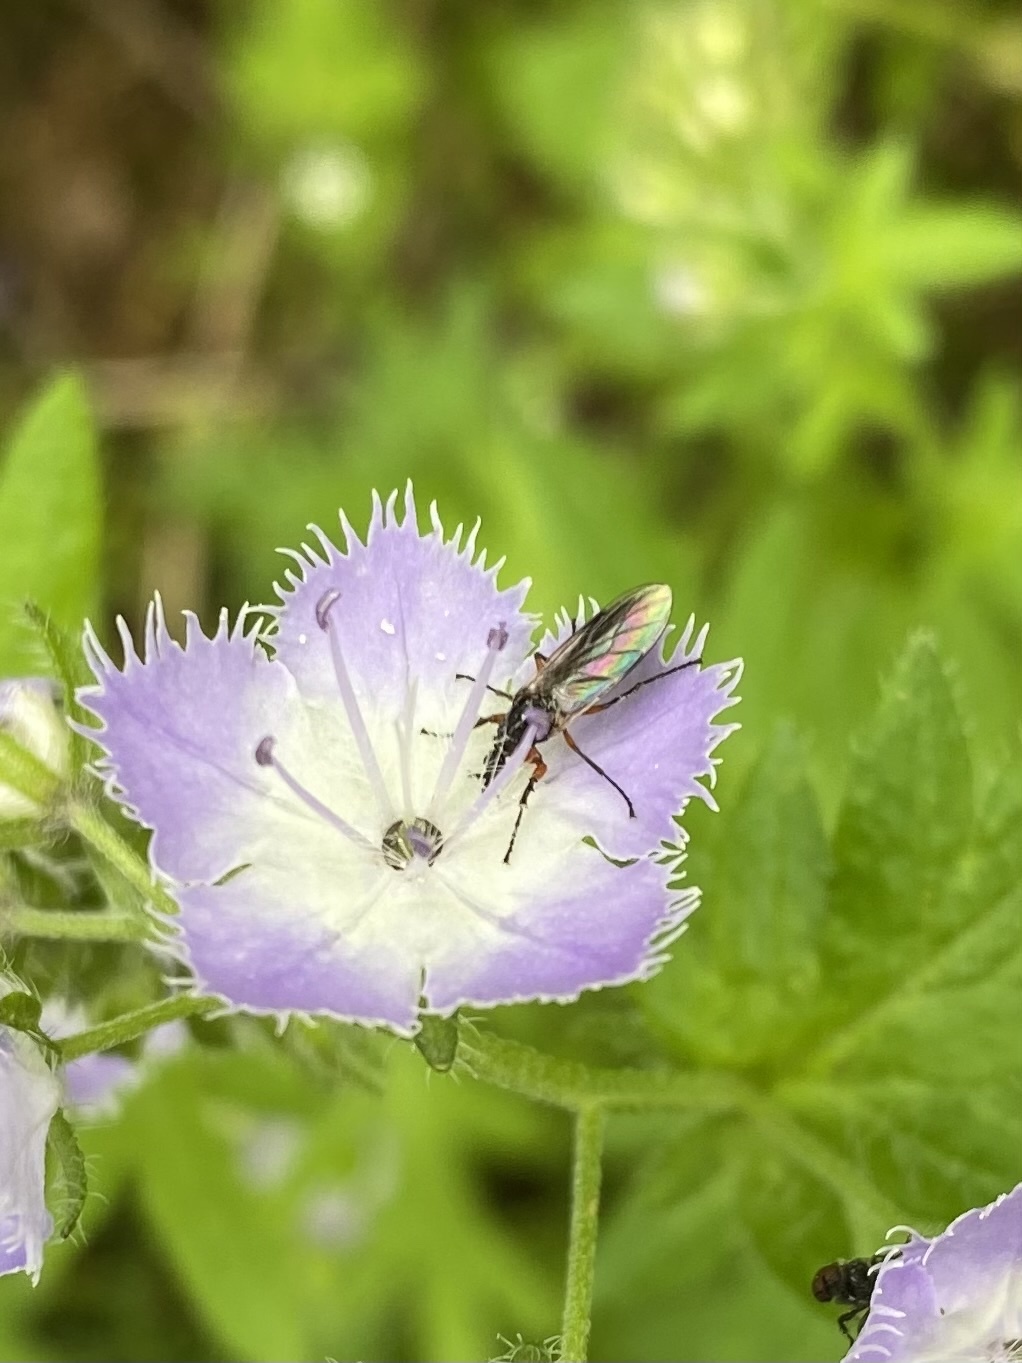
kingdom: Animalia
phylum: Arthropoda
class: Insecta
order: Diptera
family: Bibionidae
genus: Dilophus
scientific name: Dilophus
